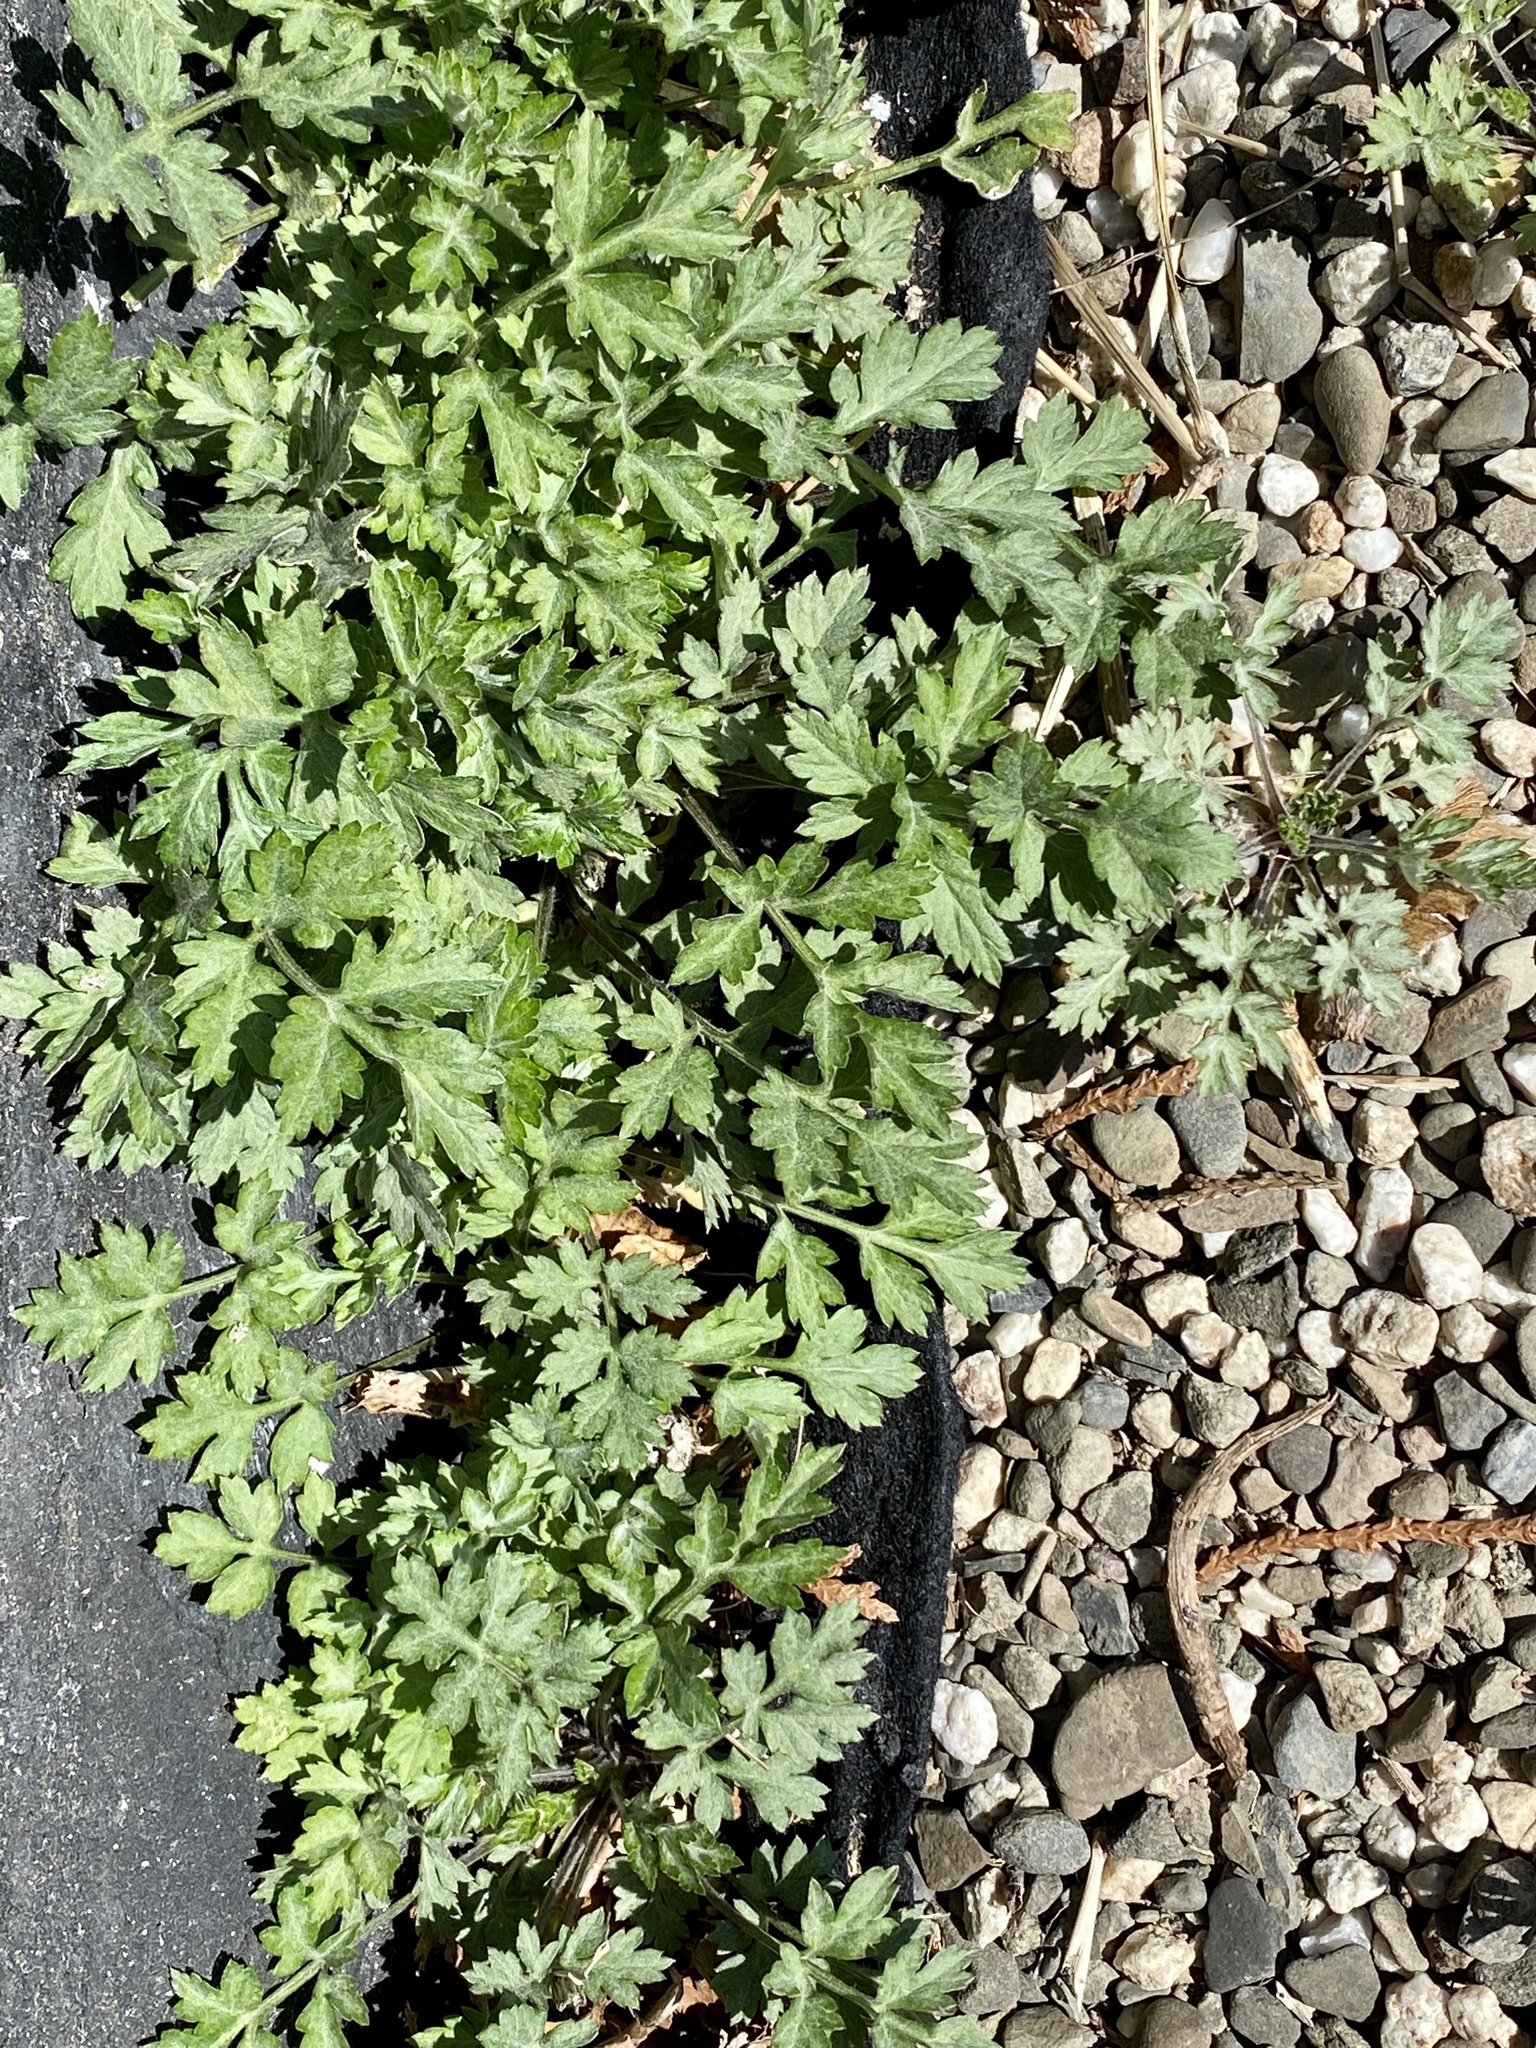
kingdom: Plantae
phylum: Tracheophyta
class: Magnoliopsida
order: Asterales
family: Asteraceae
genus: Artemisia
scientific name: Artemisia vulgaris
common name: Mugwort
